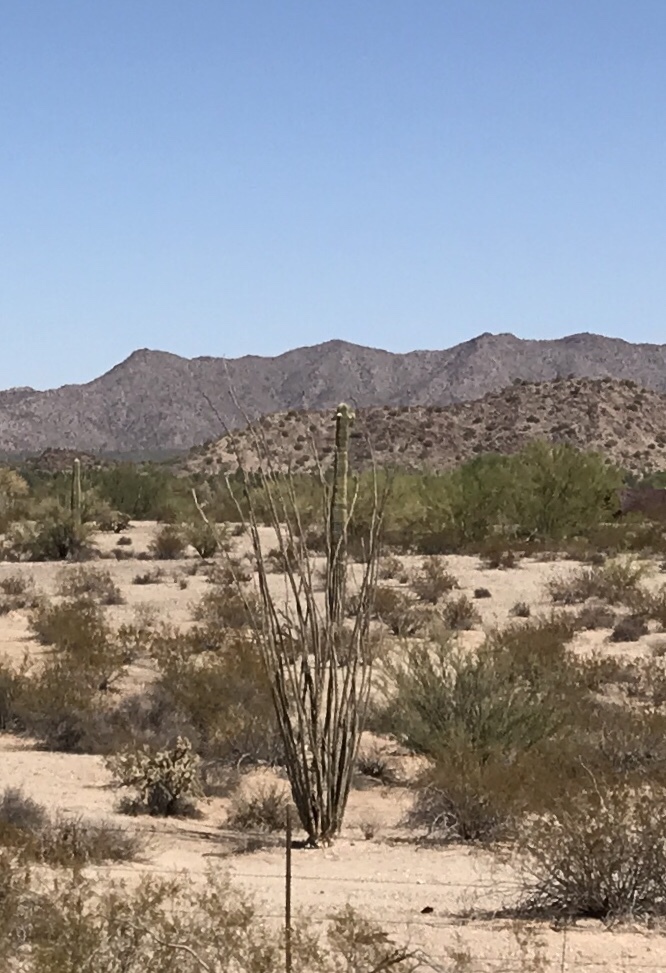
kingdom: Plantae
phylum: Tracheophyta
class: Magnoliopsida
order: Ericales
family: Fouquieriaceae
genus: Fouquieria
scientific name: Fouquieria splendens
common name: Vine-cactus
